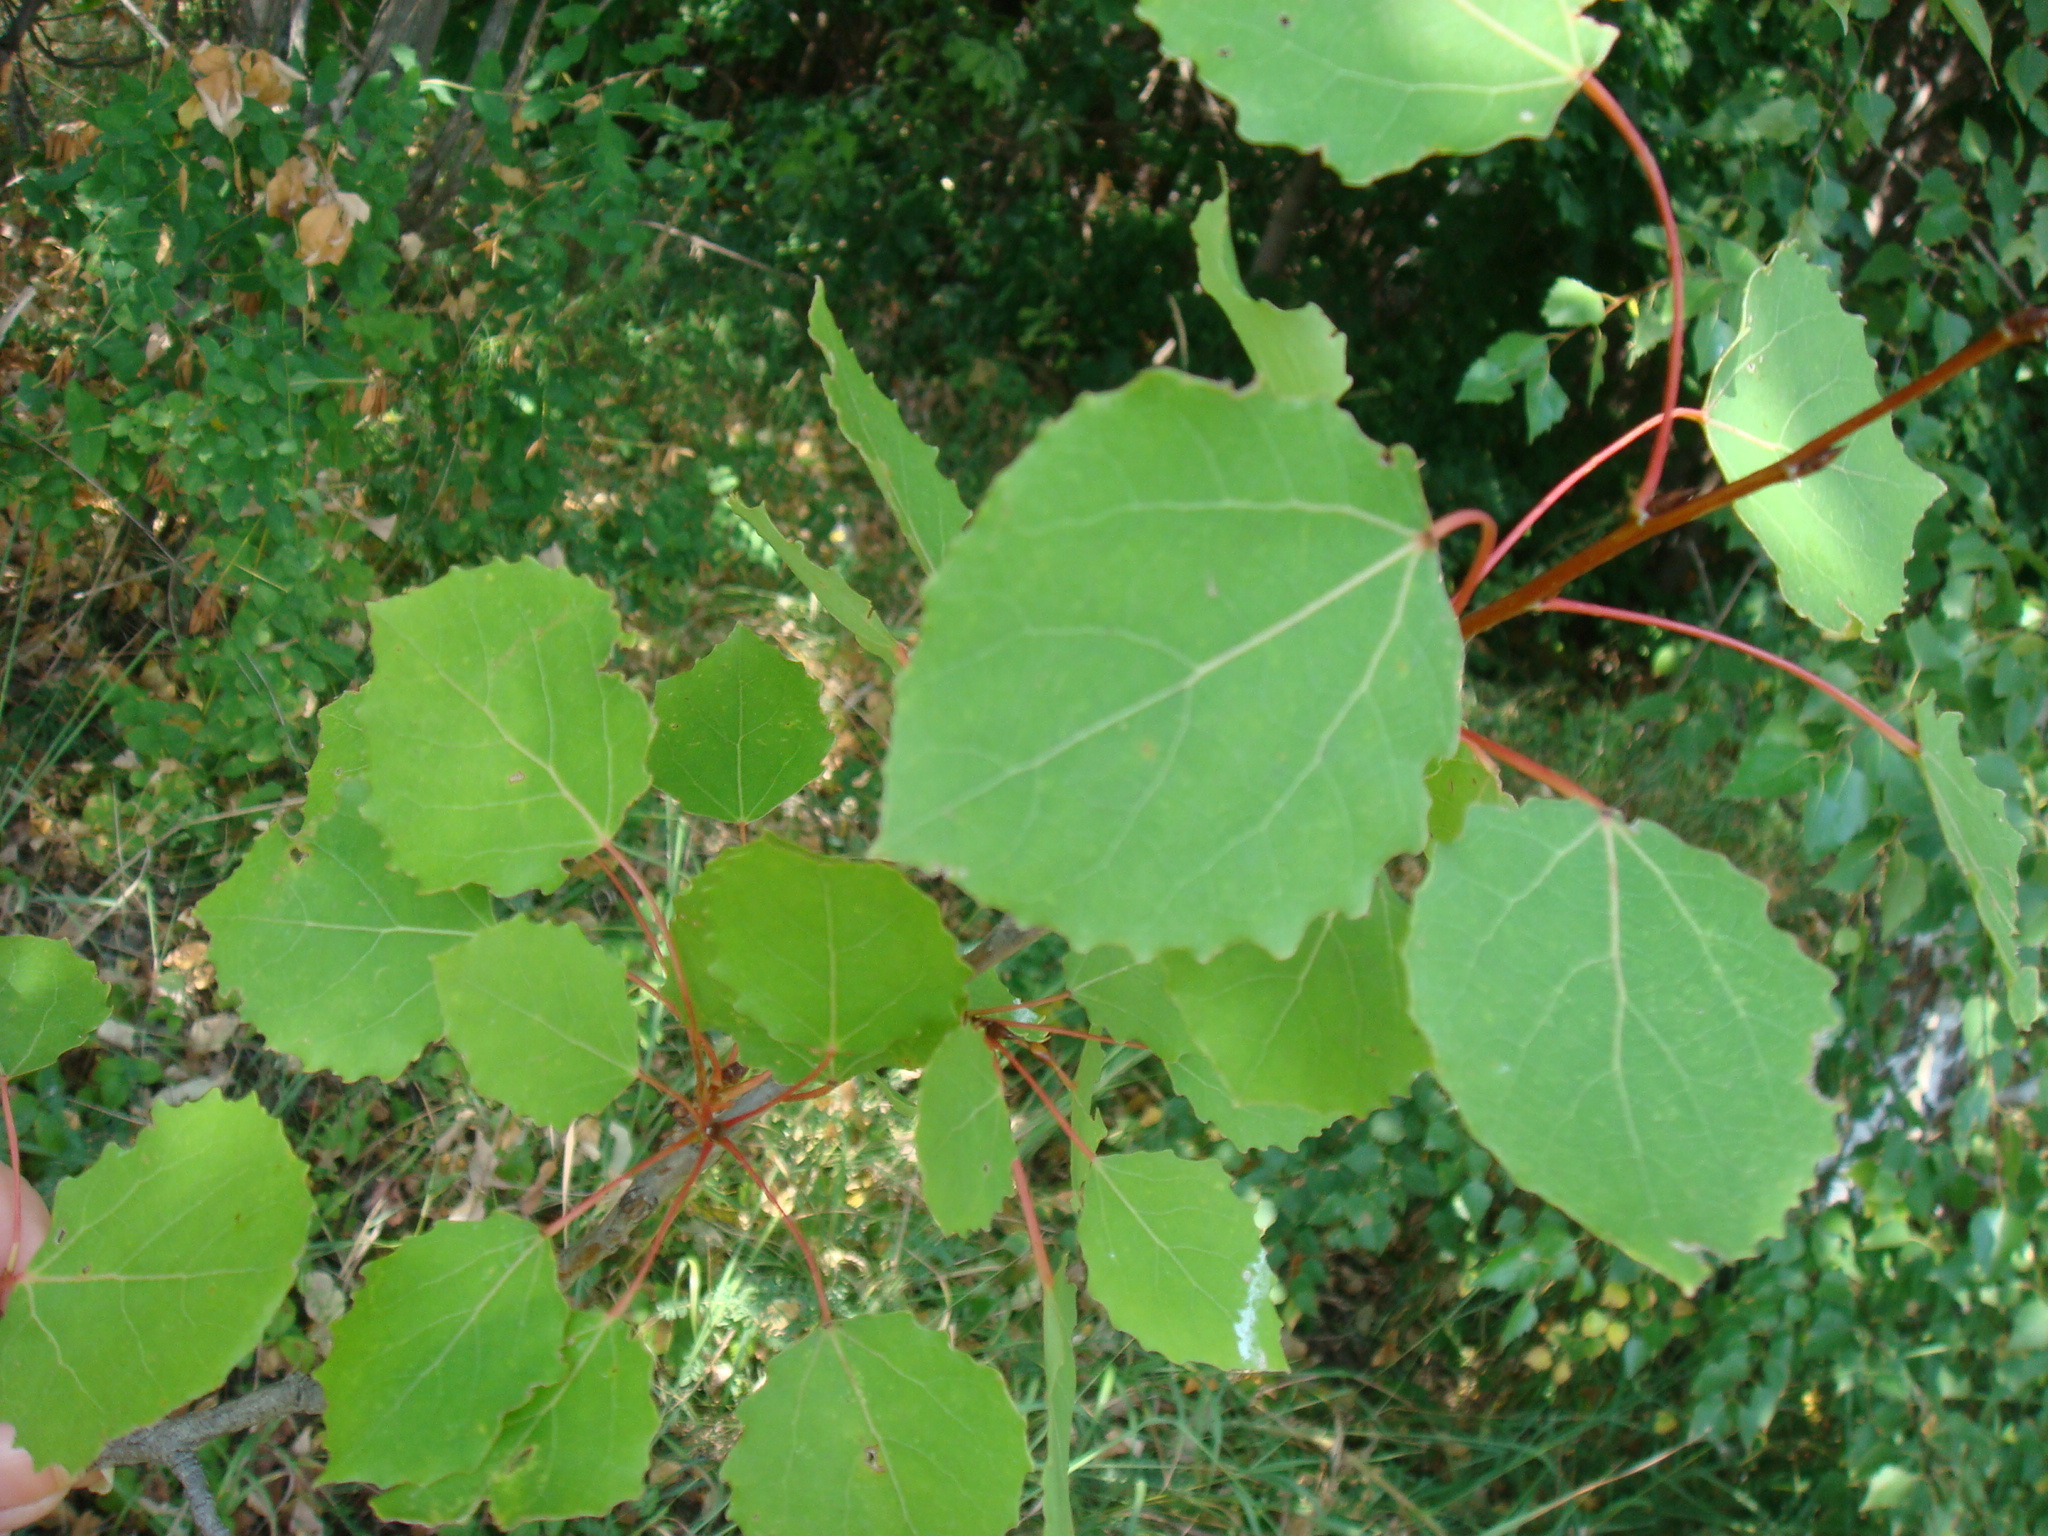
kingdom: Plantae
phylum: Tracheophyta
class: Magnoliopsida
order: Malpighiales
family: Salicaceae
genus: Populus
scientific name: Populus tremula
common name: European aspen
